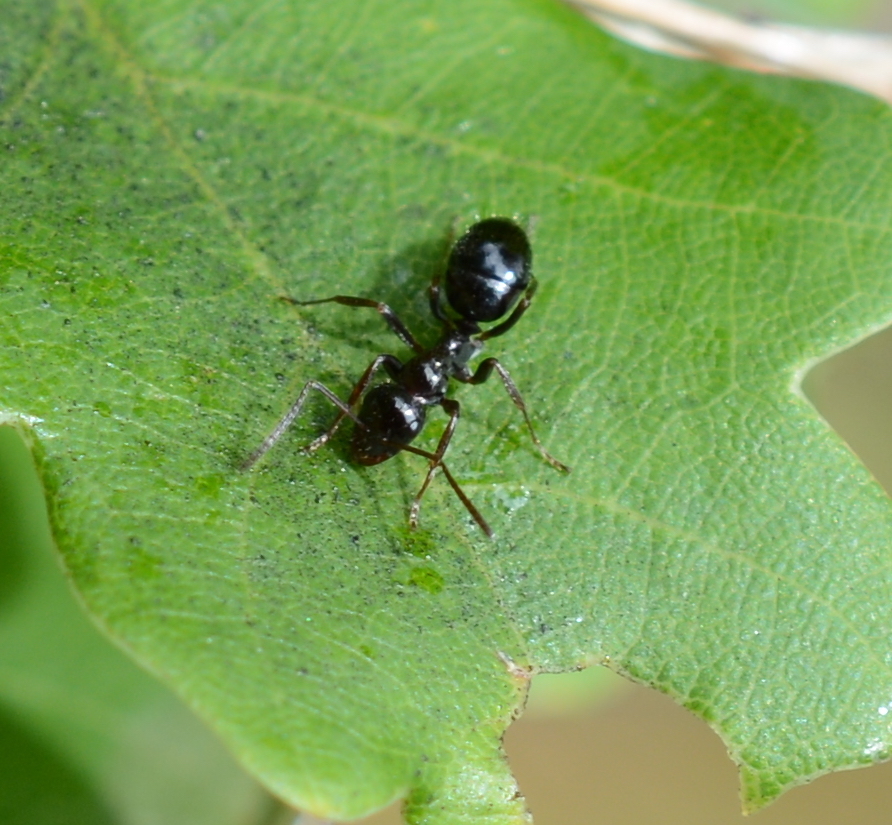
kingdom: Animalia
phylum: Arthropoda
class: Insecta
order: Hymenoptera
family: Formicidae
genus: Formica
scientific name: Formica
